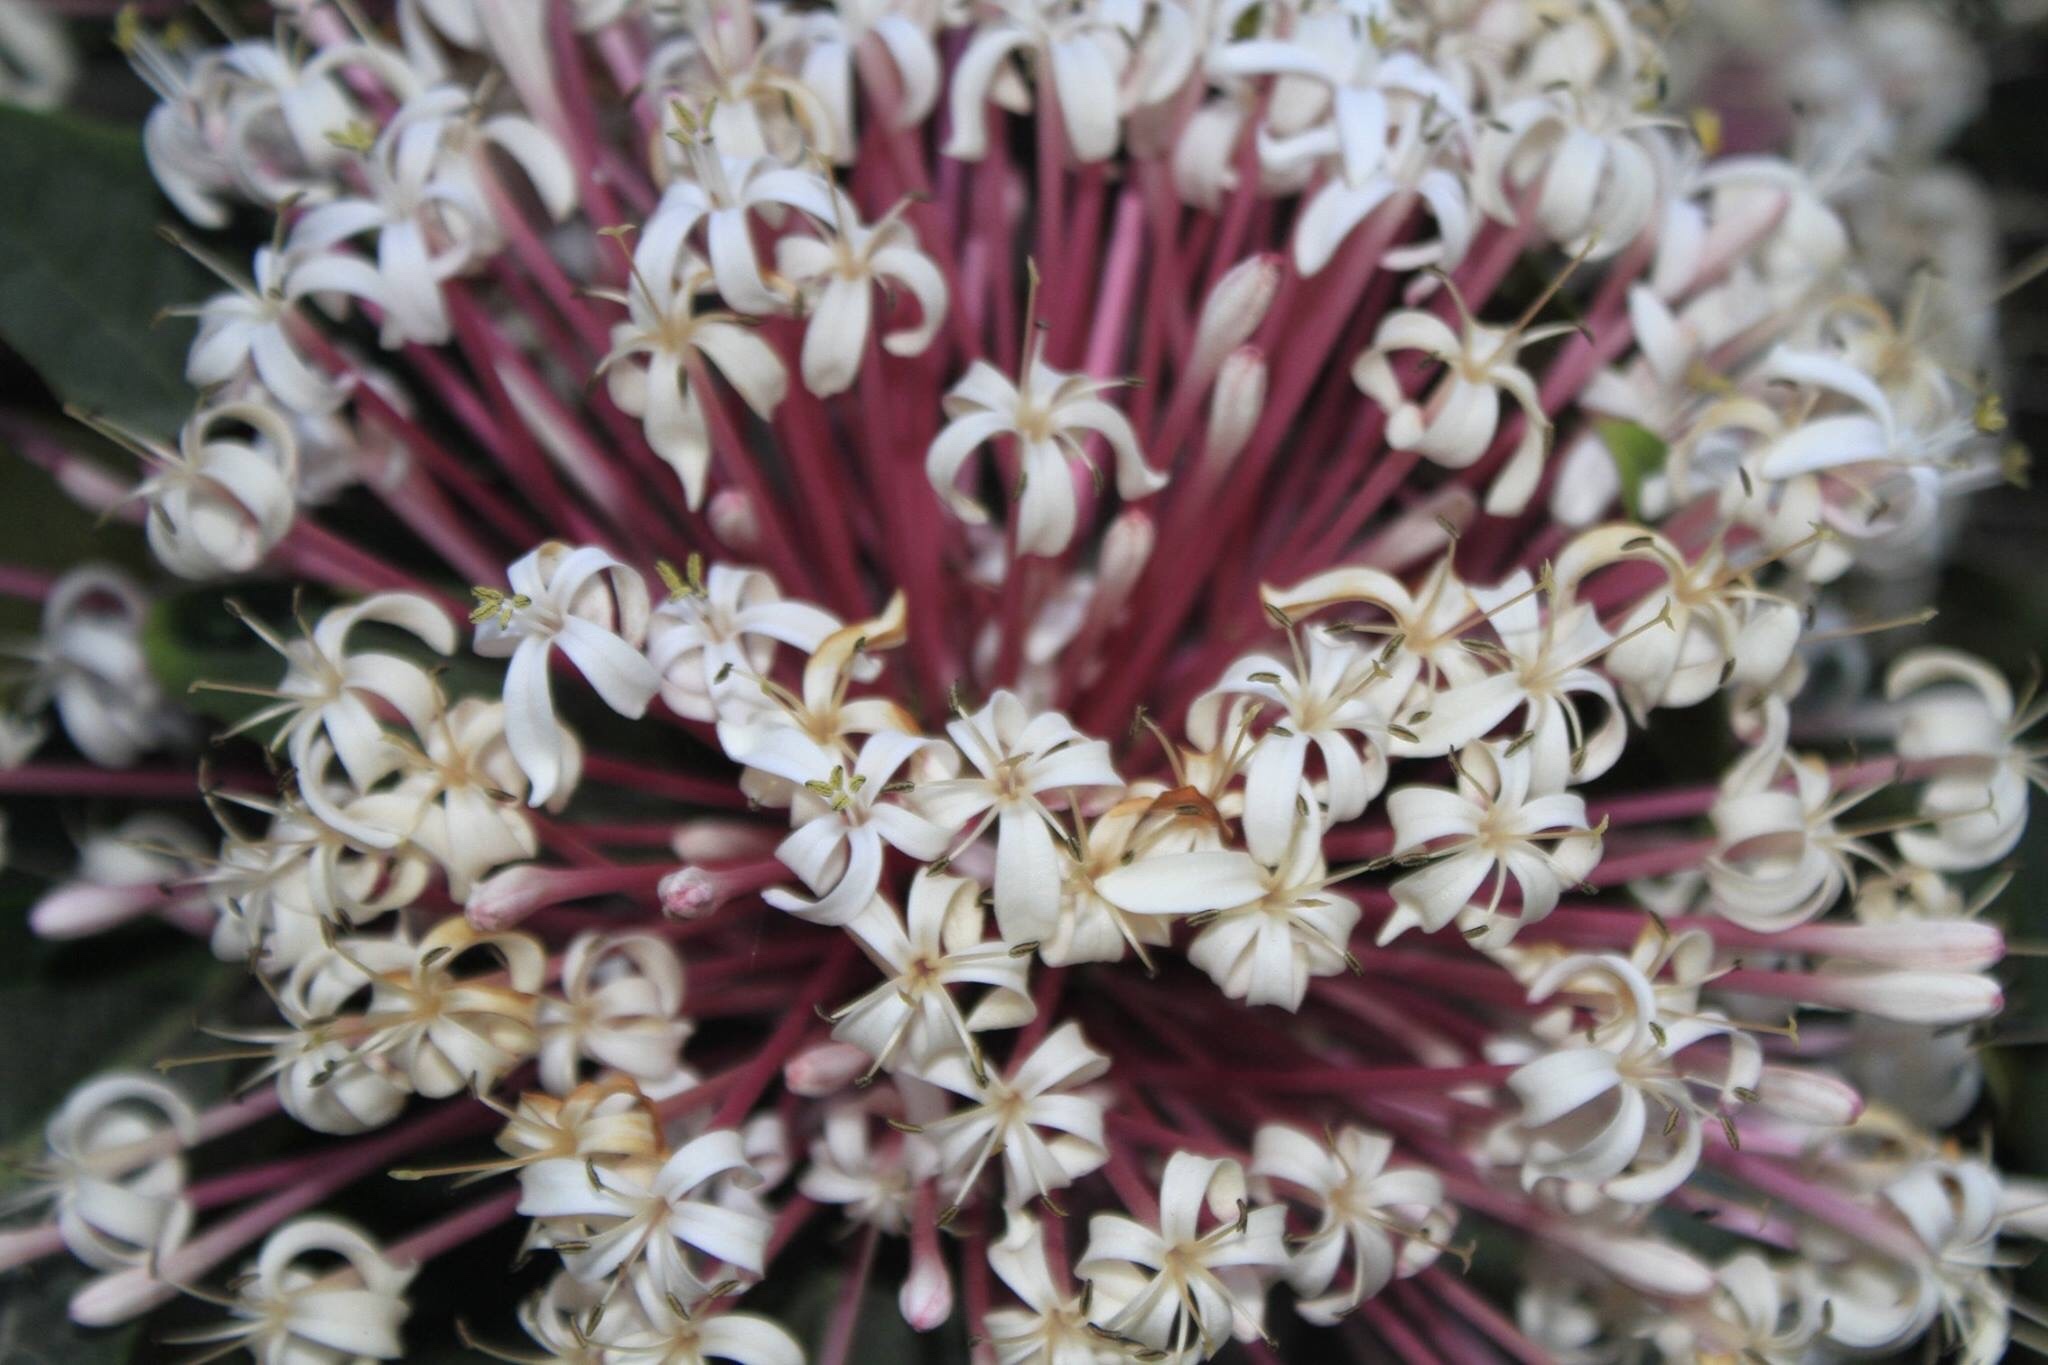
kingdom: Plantae
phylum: Tracheophyta
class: Magnoliopsida
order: Lamiales
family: Lamiaceae
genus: Clerodendrum
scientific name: Clerodendrum quadriloculare
